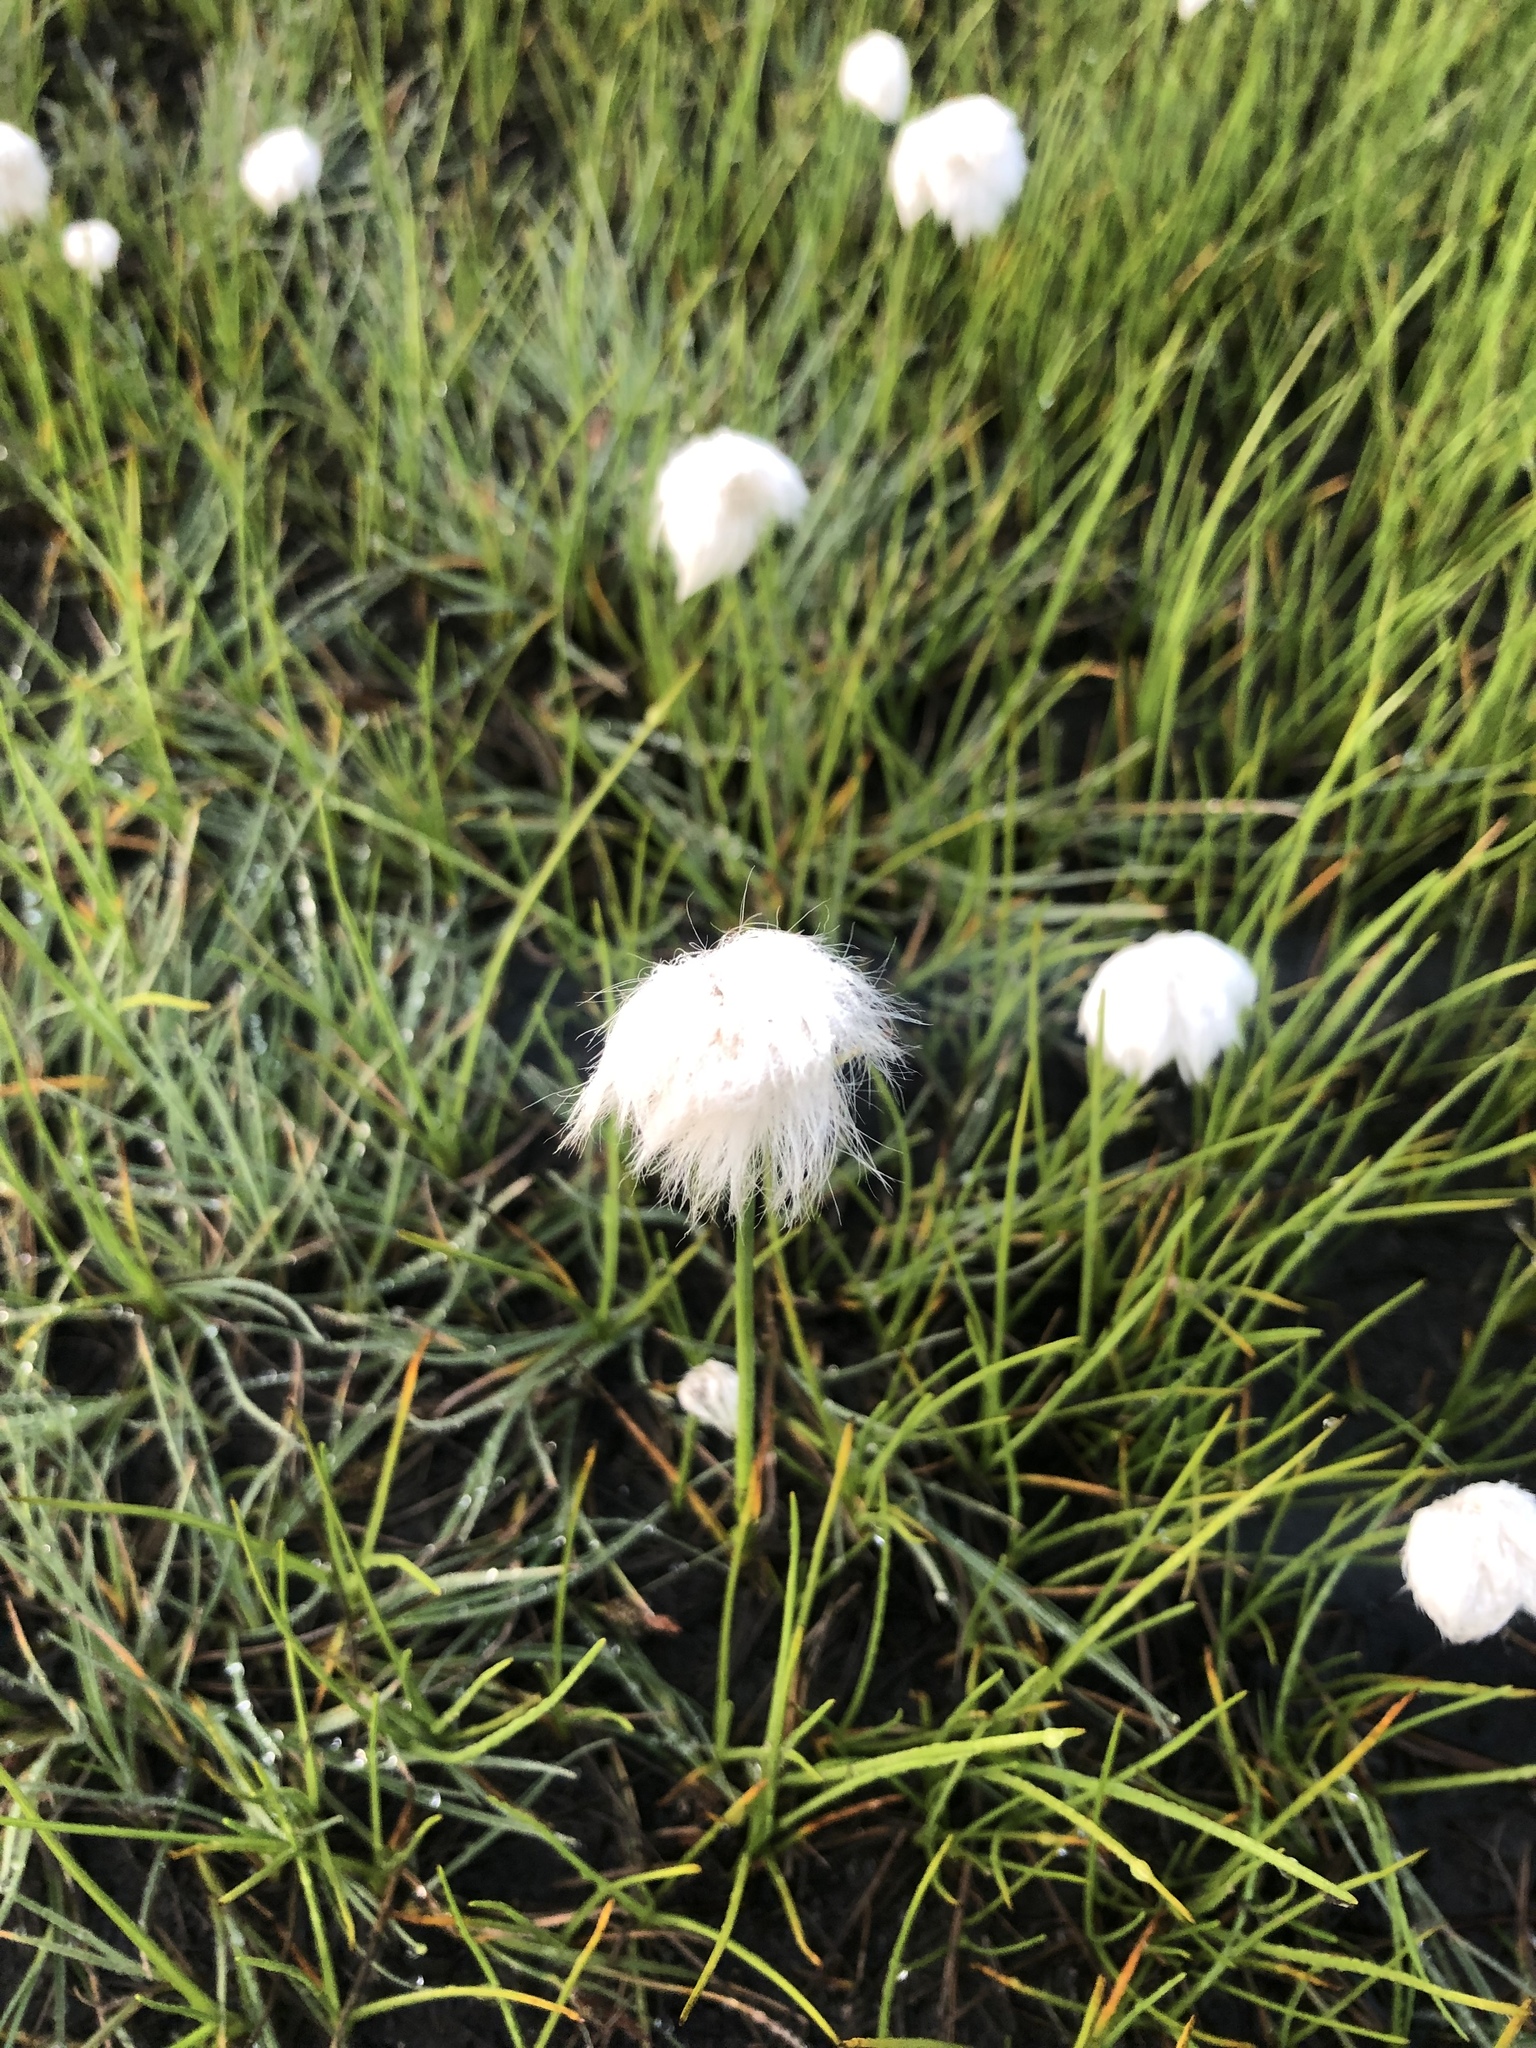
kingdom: Plantae
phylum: Tracheophyta
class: Liliopsida
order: Poales
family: Cyperaceae
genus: Eriophorum
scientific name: Eriophorum scheuchzeri
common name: Scheuchzer's cottongrass
